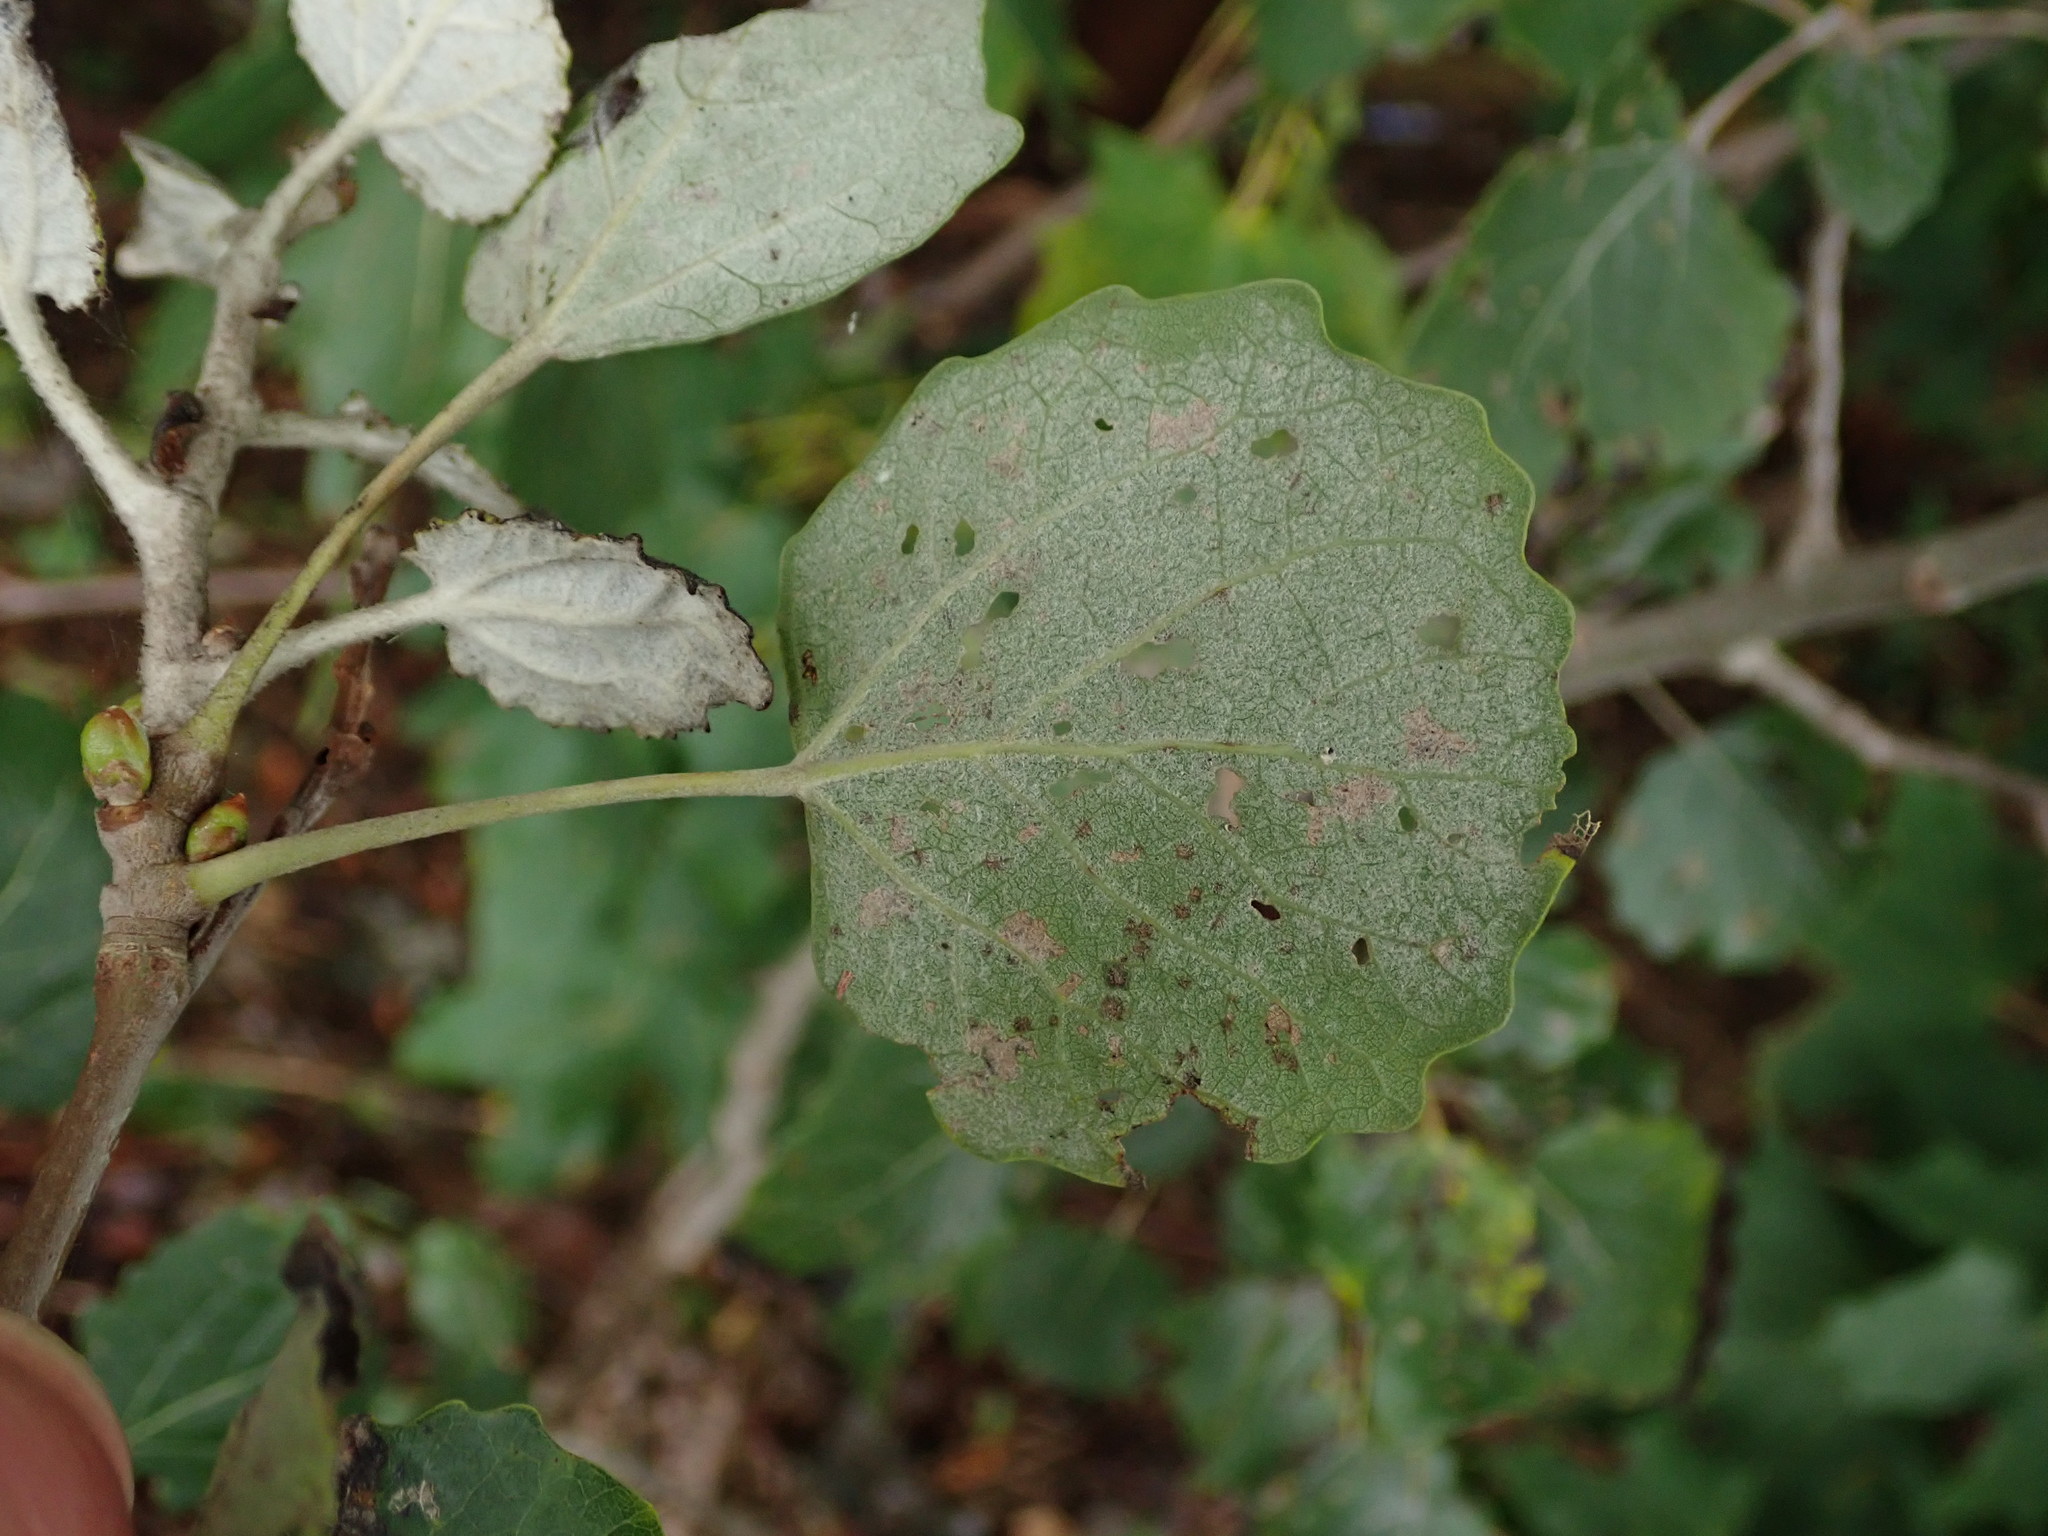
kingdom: Plantae
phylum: Tracheophyta
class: Magnoliopsida
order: Malpighiales
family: Salicaceae
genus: Populus
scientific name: Populus tremula
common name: European aspen
